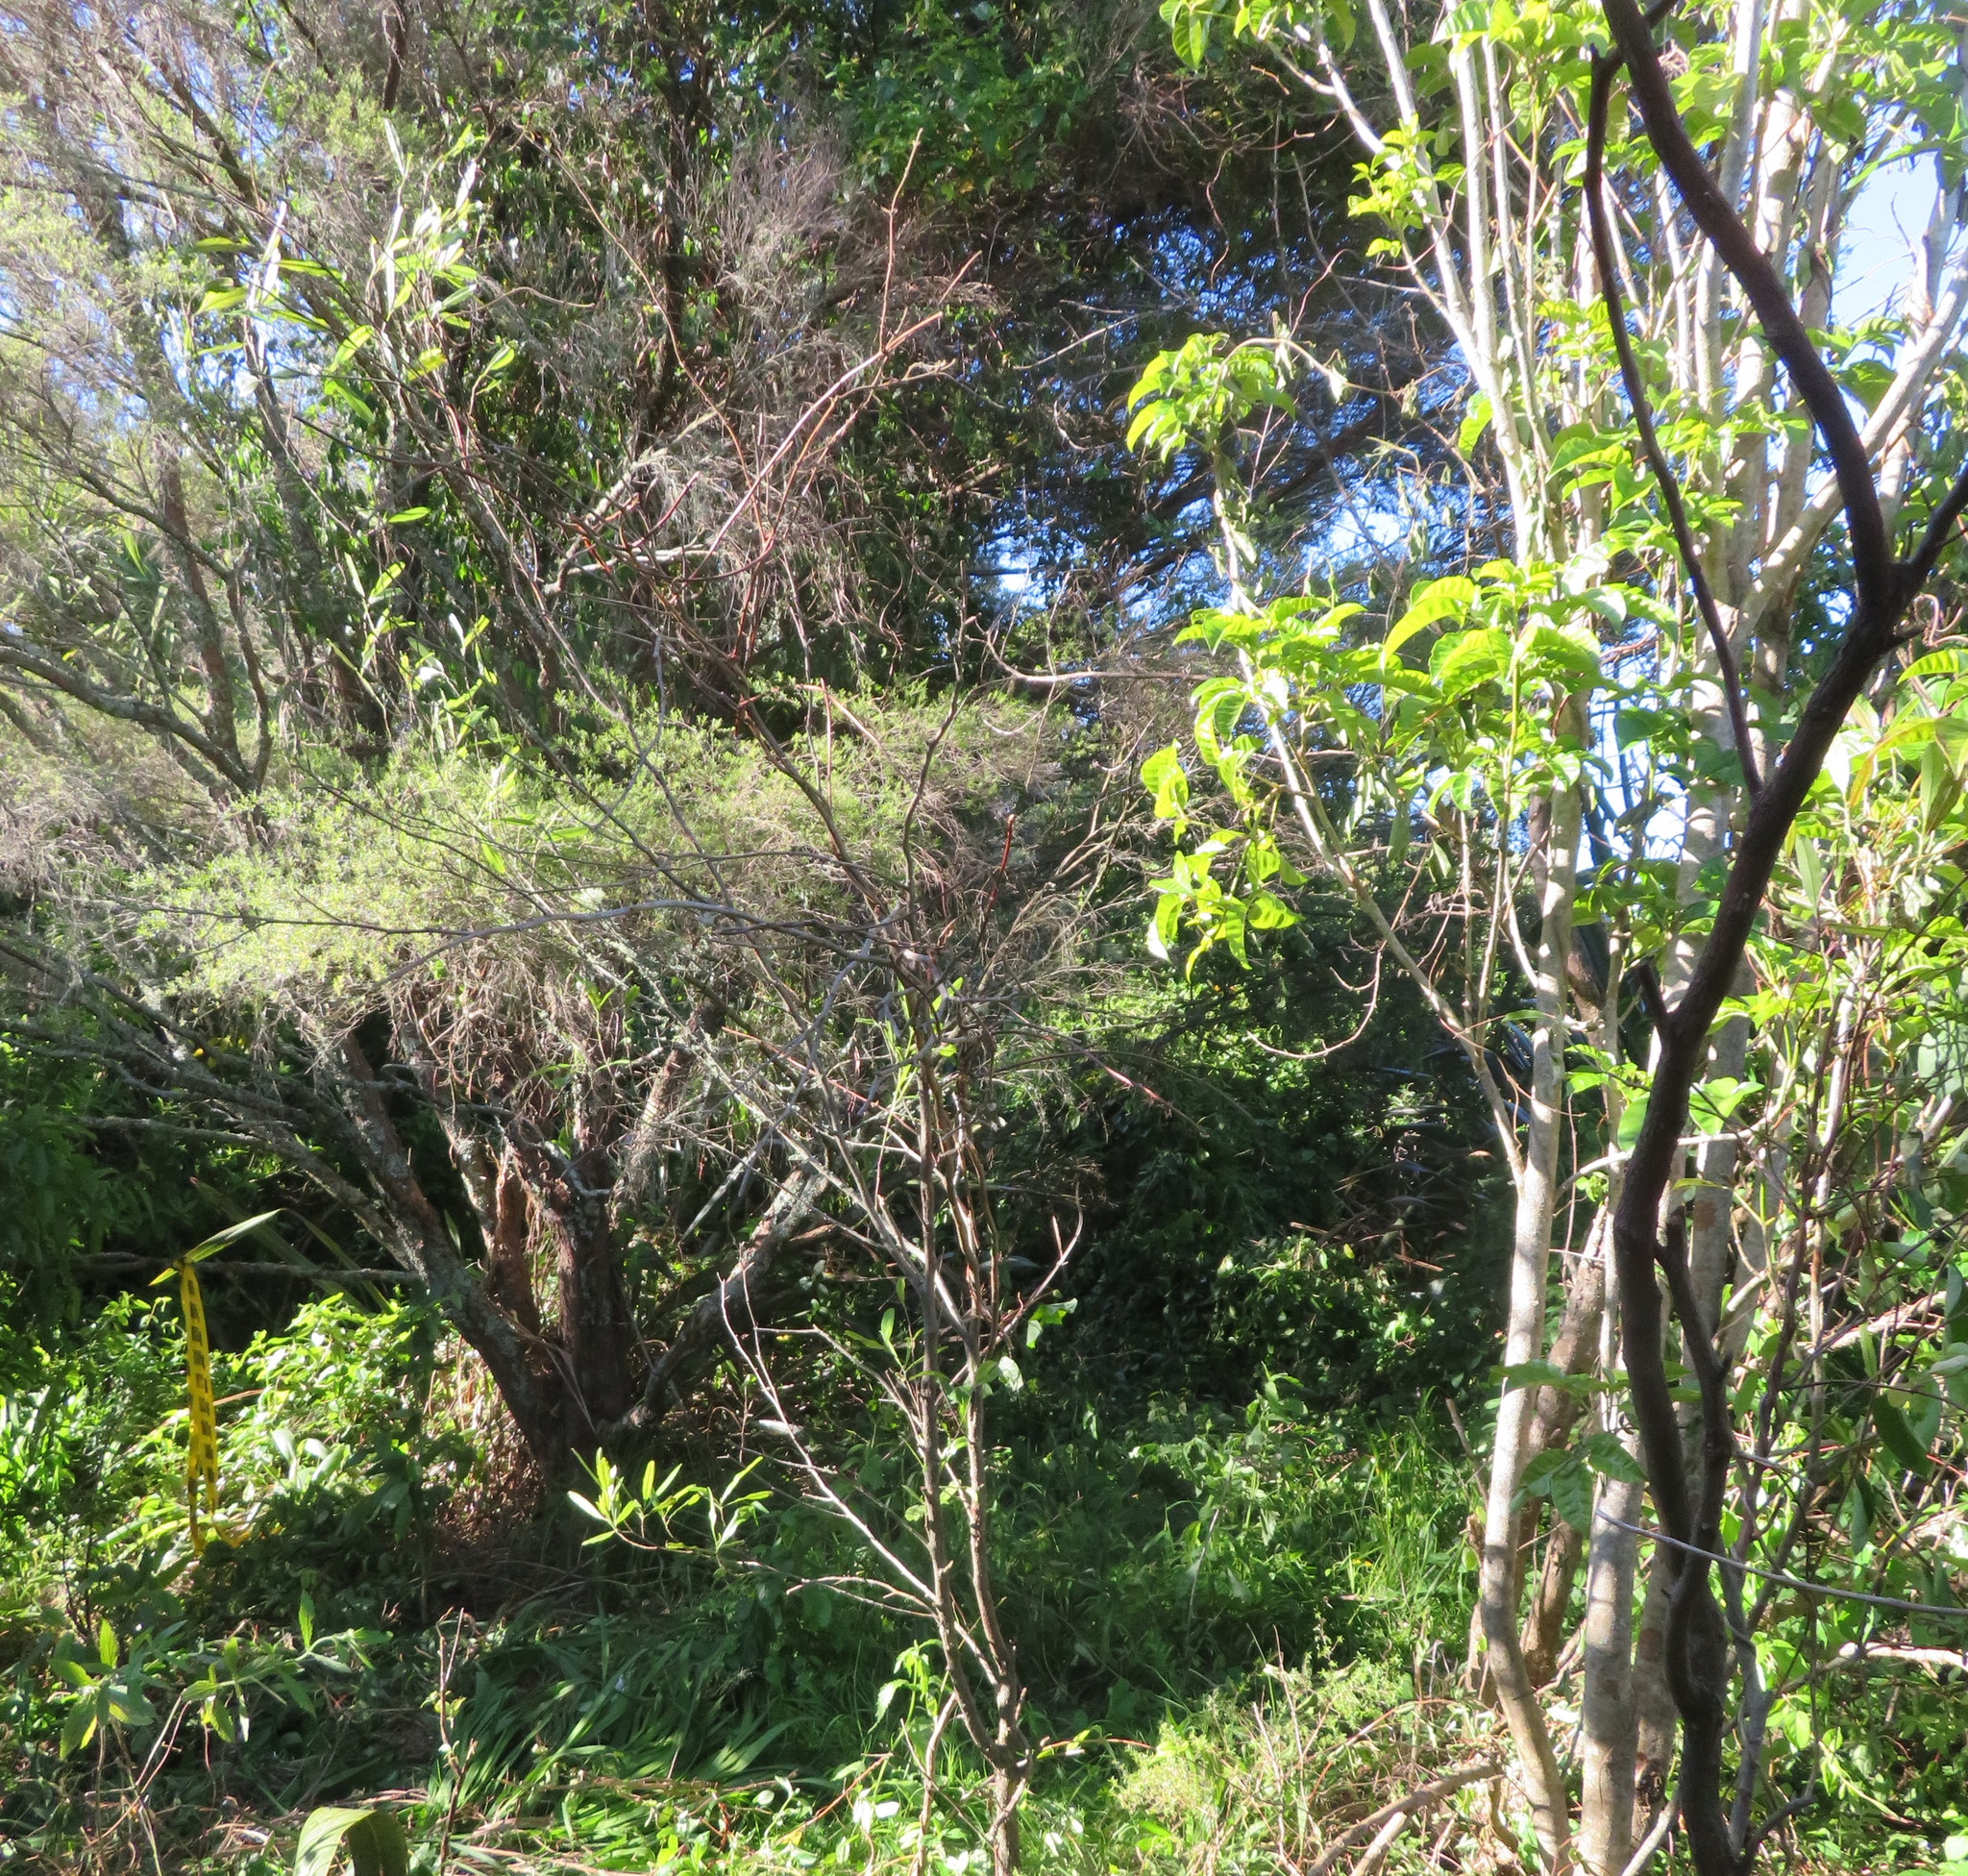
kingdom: Plantae
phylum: Tracheophyta
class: Magnoliopsida
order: Sapindales
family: Sapindaceae
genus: Dodonaea
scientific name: Dodonaea viscosa
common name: Hopbush
